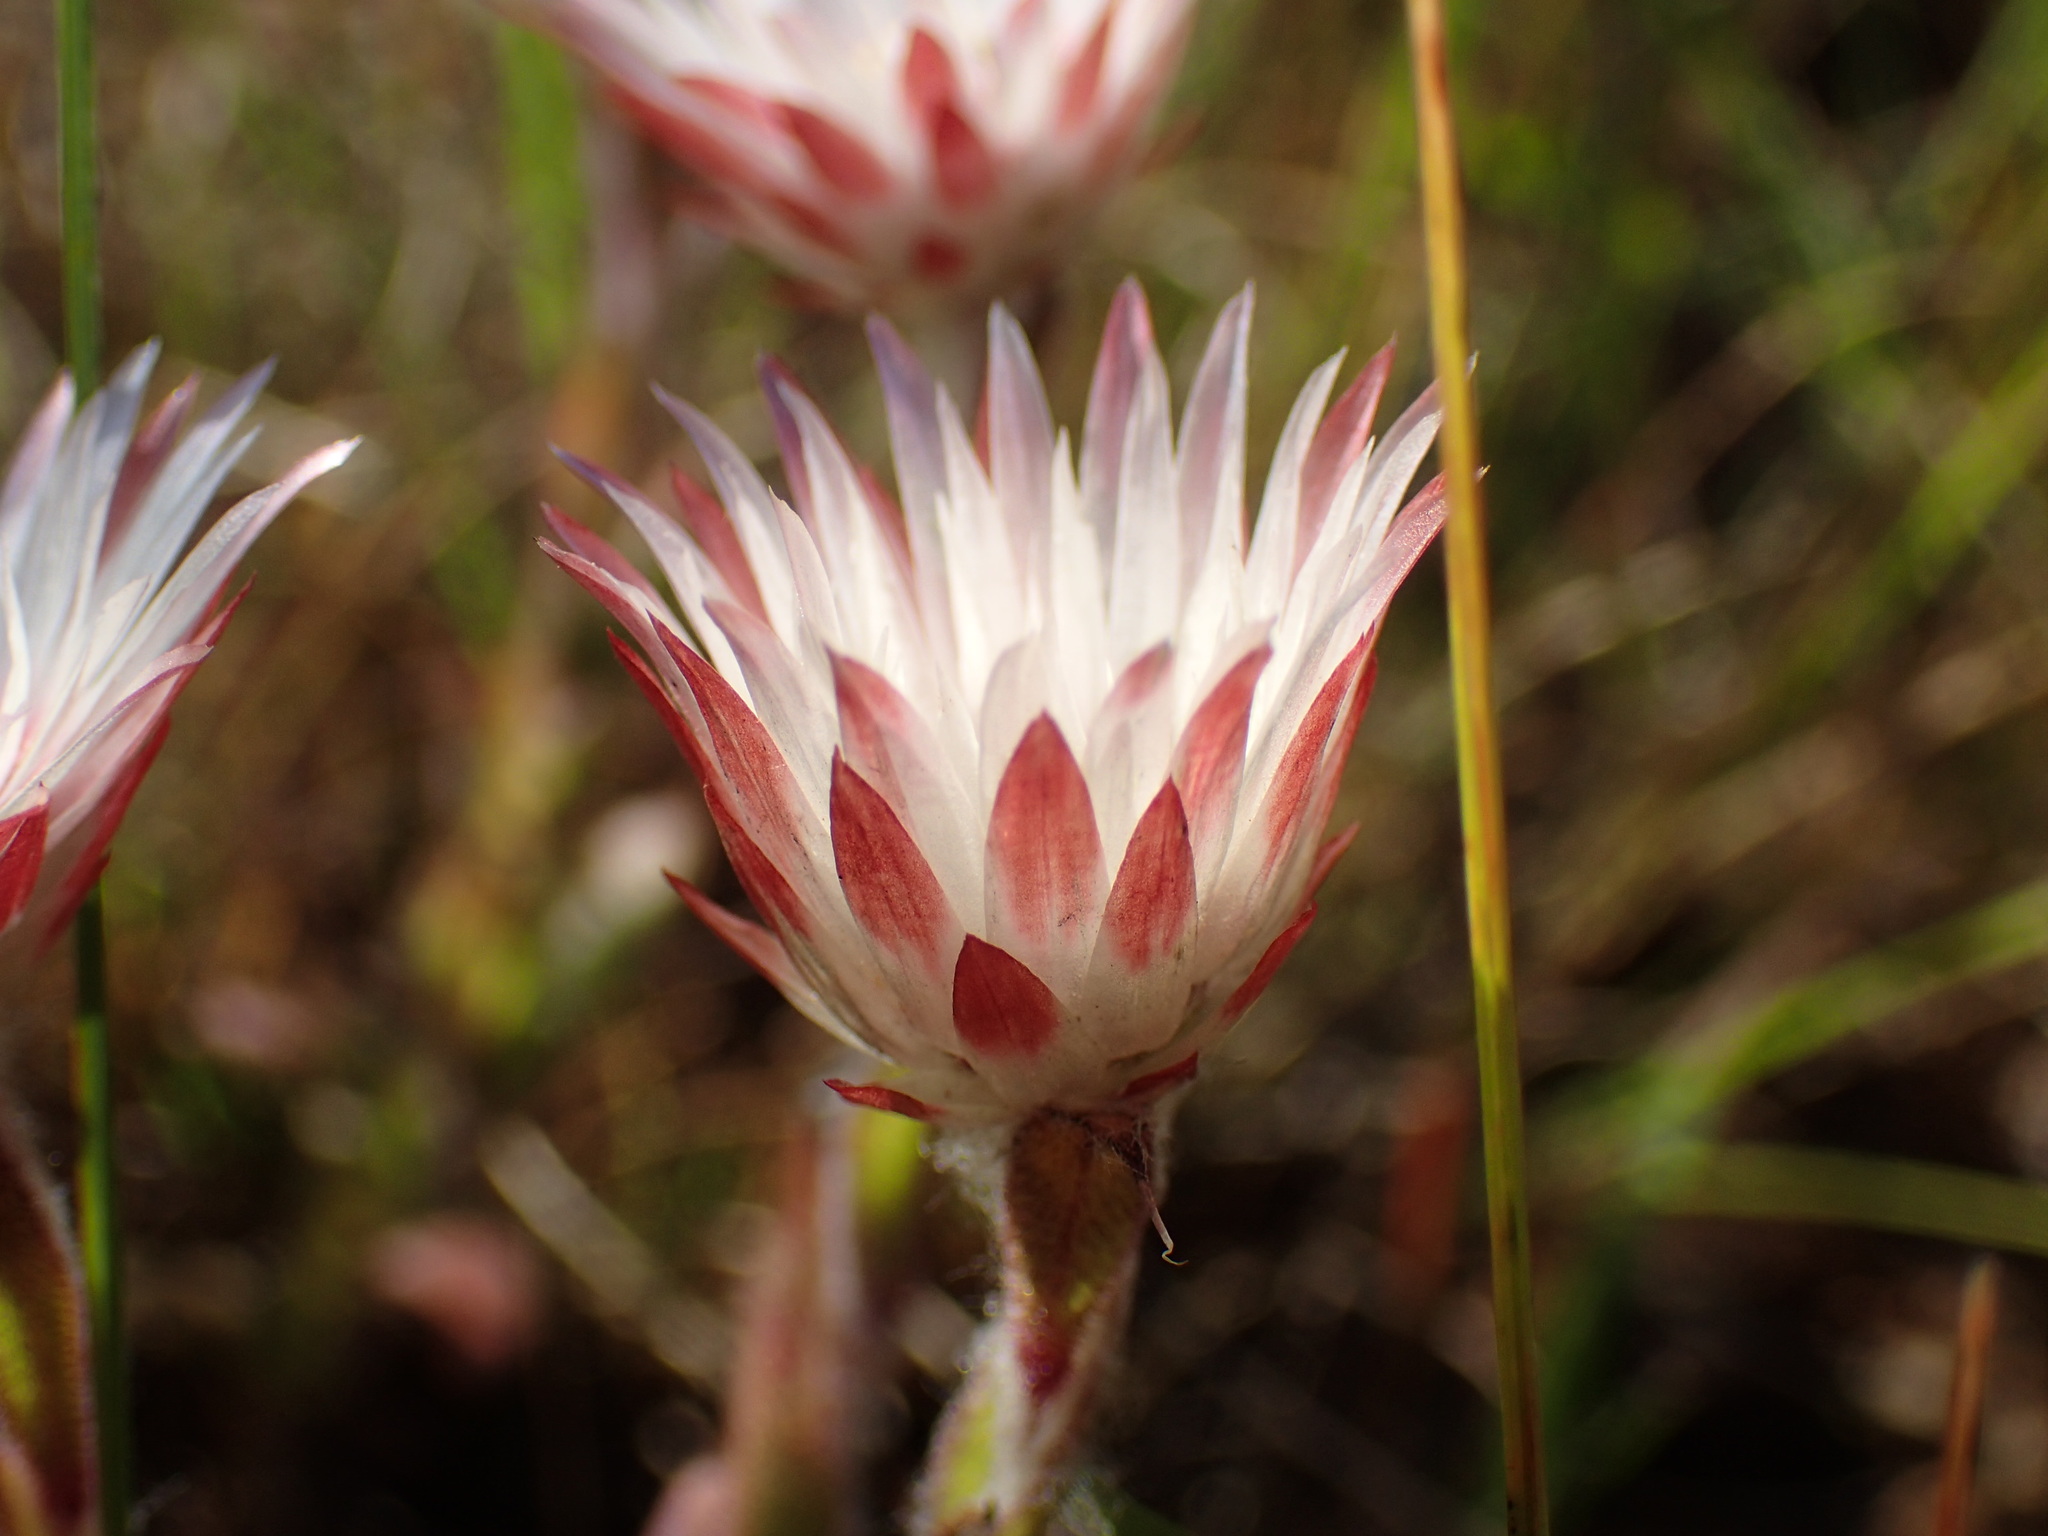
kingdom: Plantae
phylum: Tracheophyta
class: Magnoliopsida
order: Asterales
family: Asteraceae
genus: Helichrysum
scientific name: Helichrysum adenocarpum
